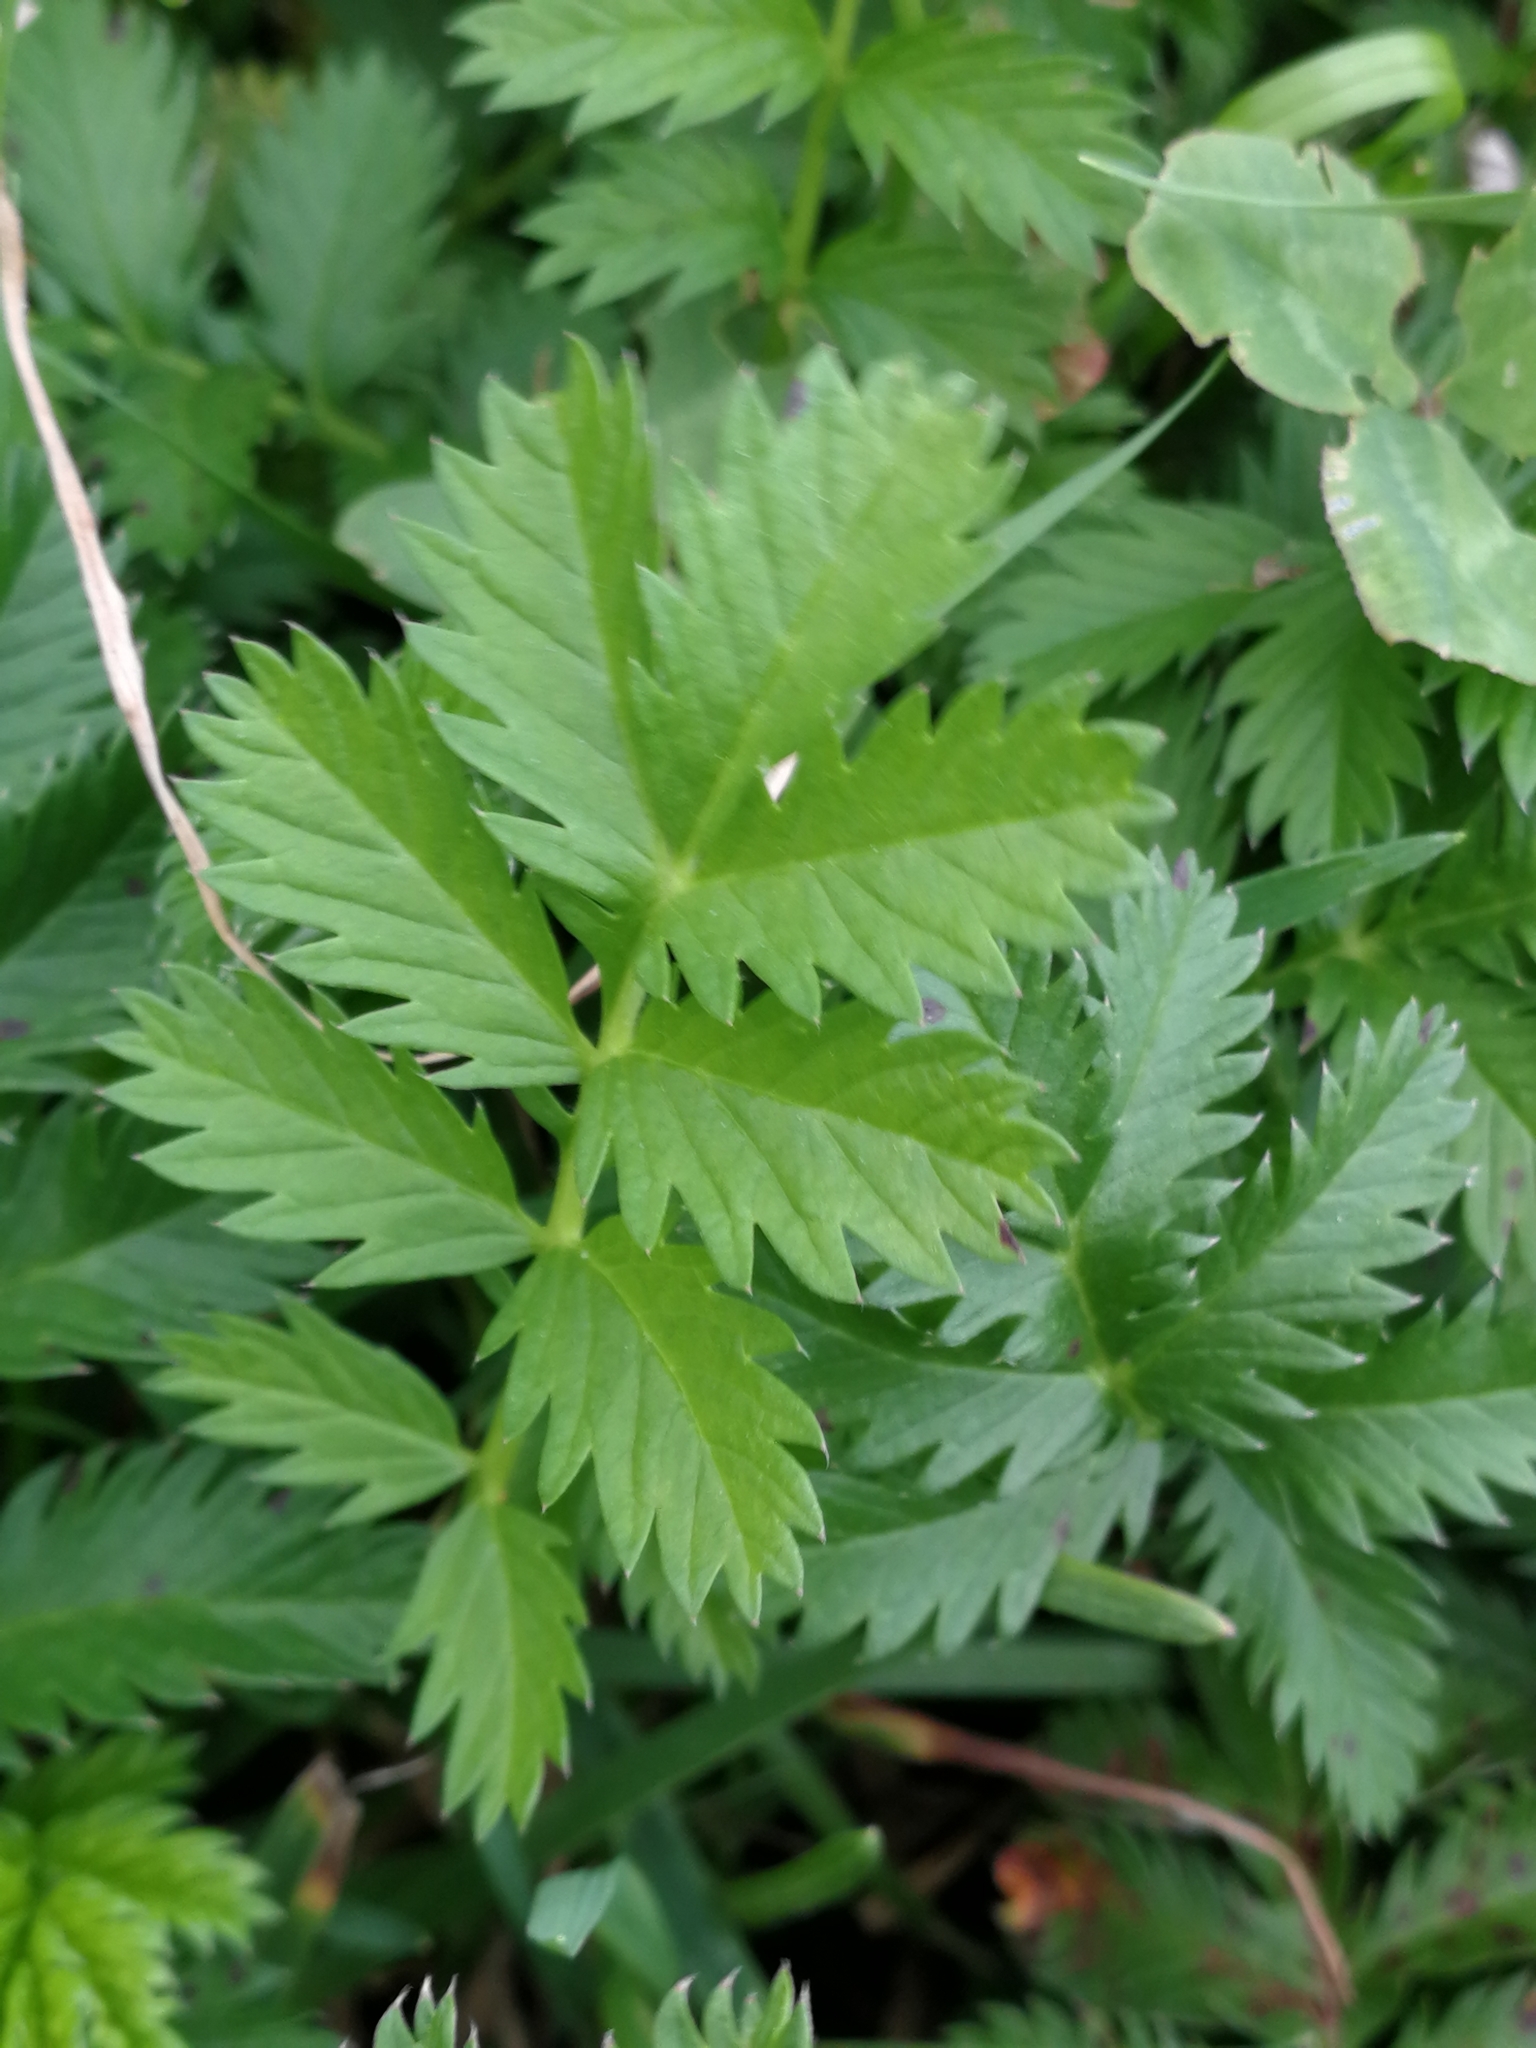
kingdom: Plantae
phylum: Tracheophyta
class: Magnoliopsida
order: Rosales
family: Rosaceae
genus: Argentina
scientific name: Argentina anserina
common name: Common silverweed
